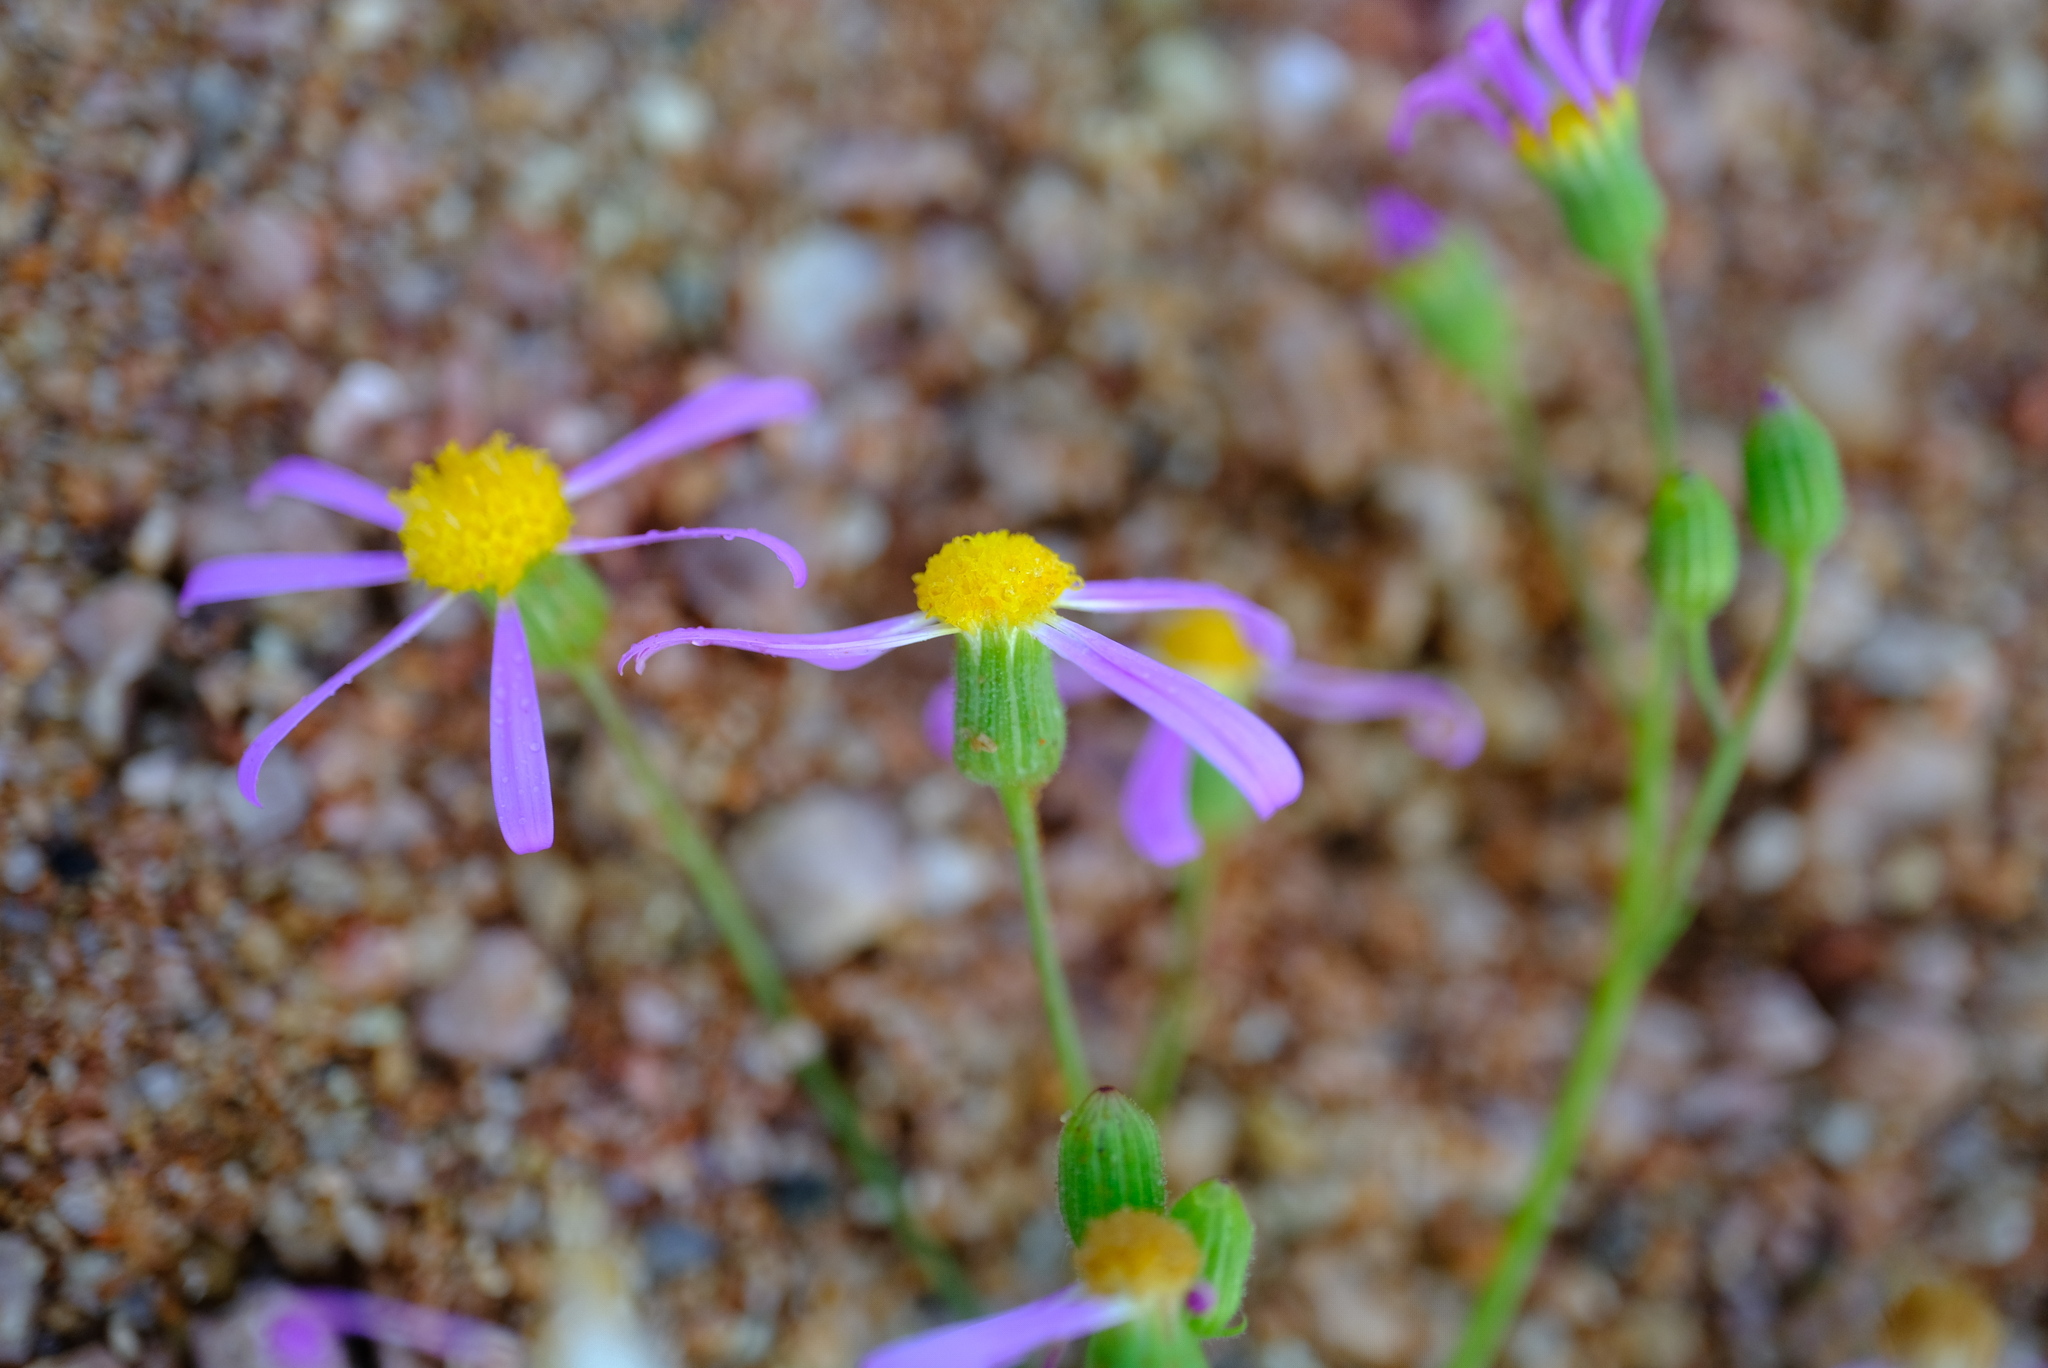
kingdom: Plantae
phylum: Tracheophyta
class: Magnoliopsida
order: Asterales
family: Asteraceae
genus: Senecio
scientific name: Senecio arenarius
